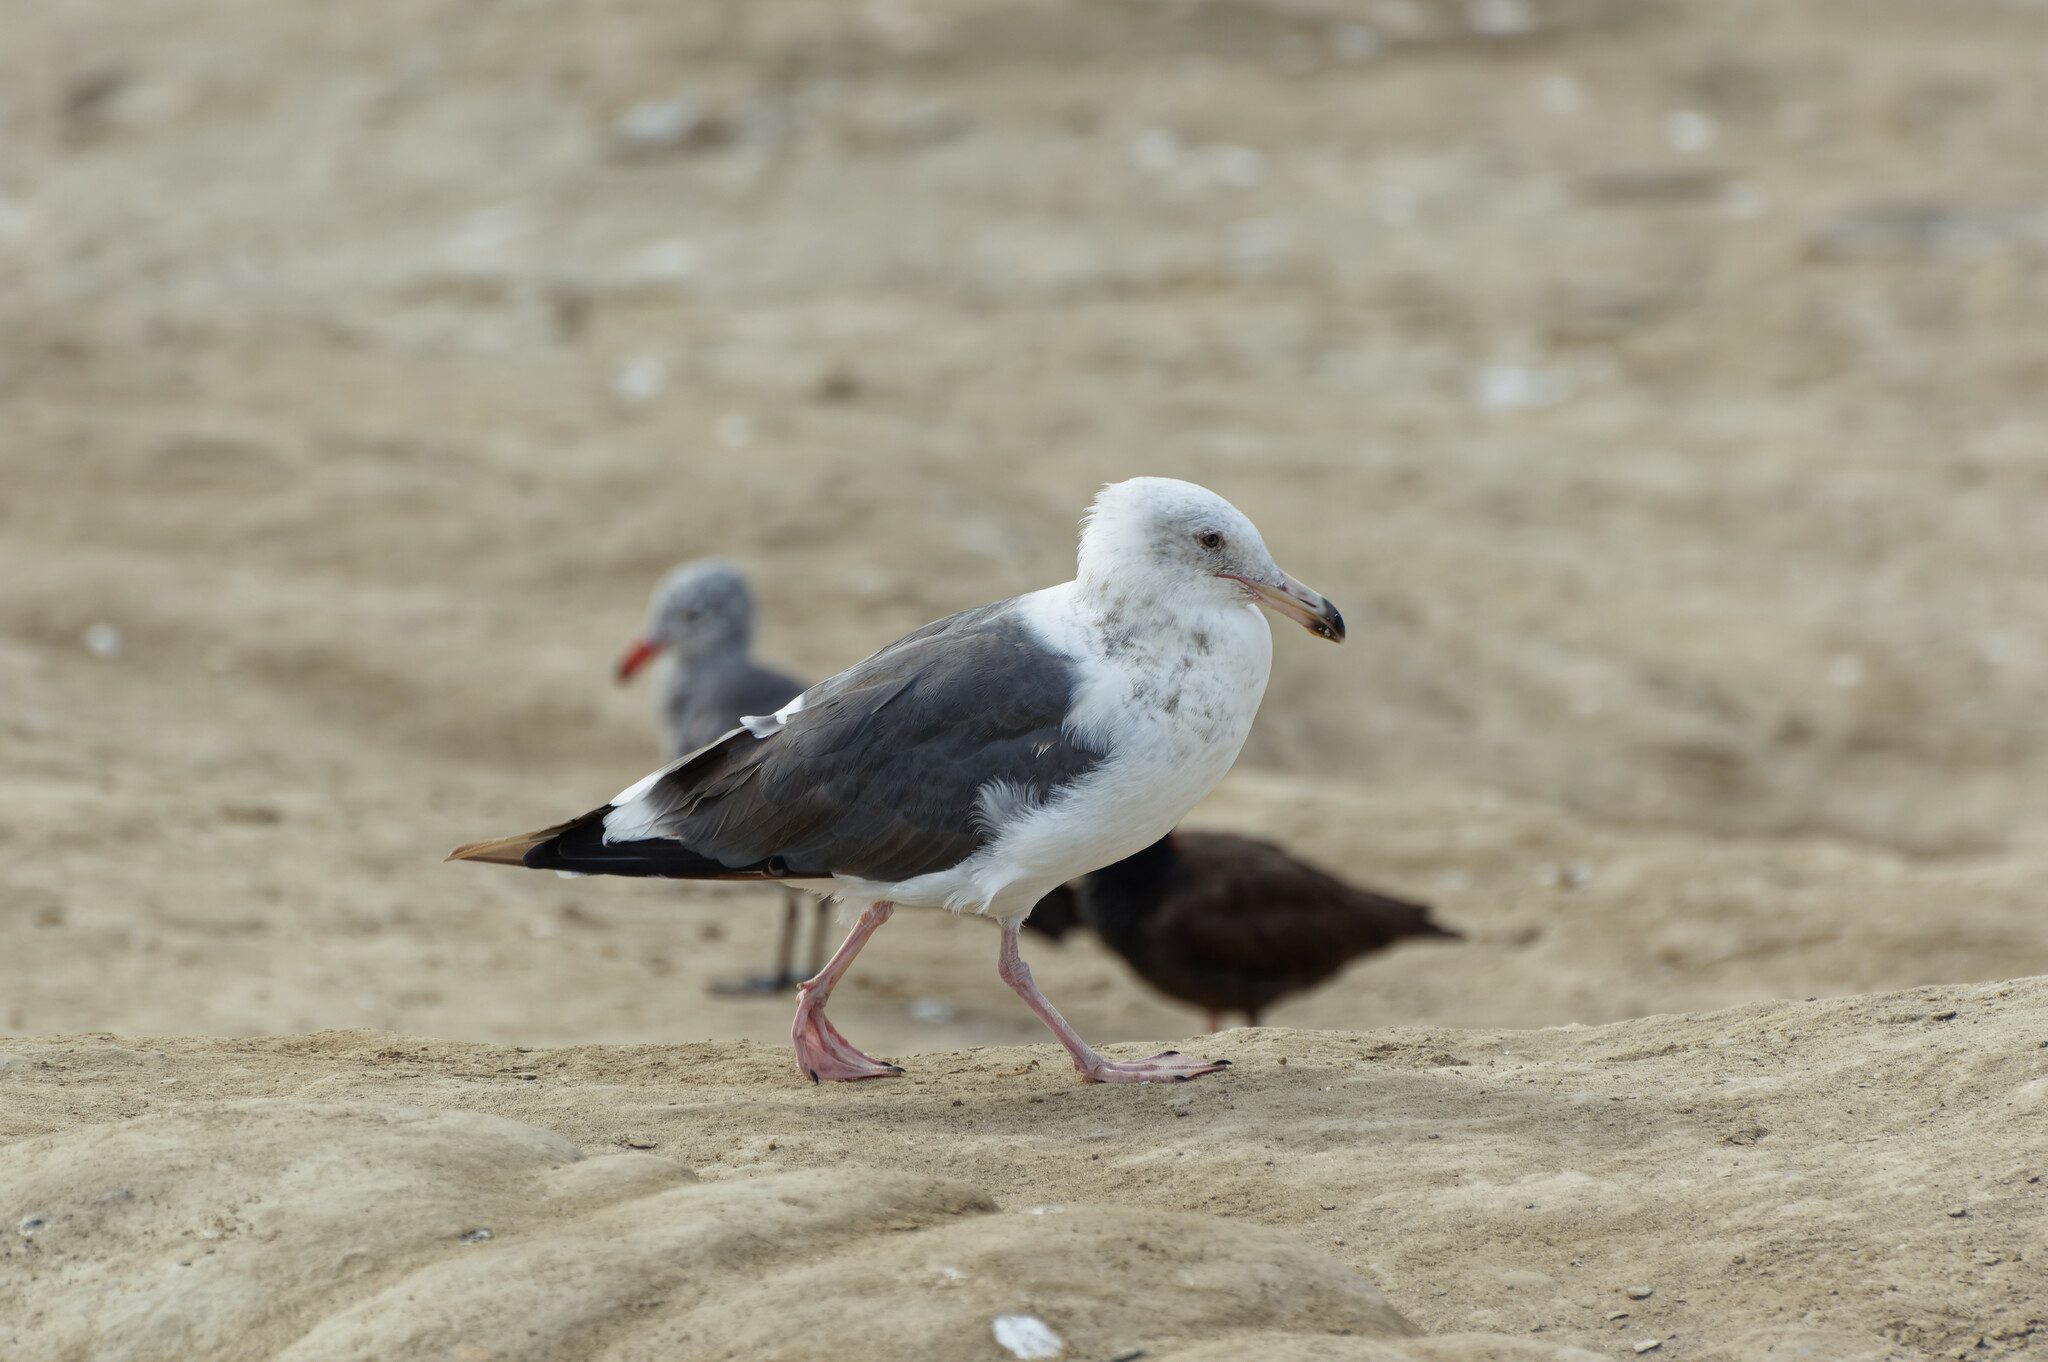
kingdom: Animalia
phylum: Chordata
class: Aves
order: Charadriiformes
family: Laridae
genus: Larus
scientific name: Larus occidentalis
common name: Western gull
